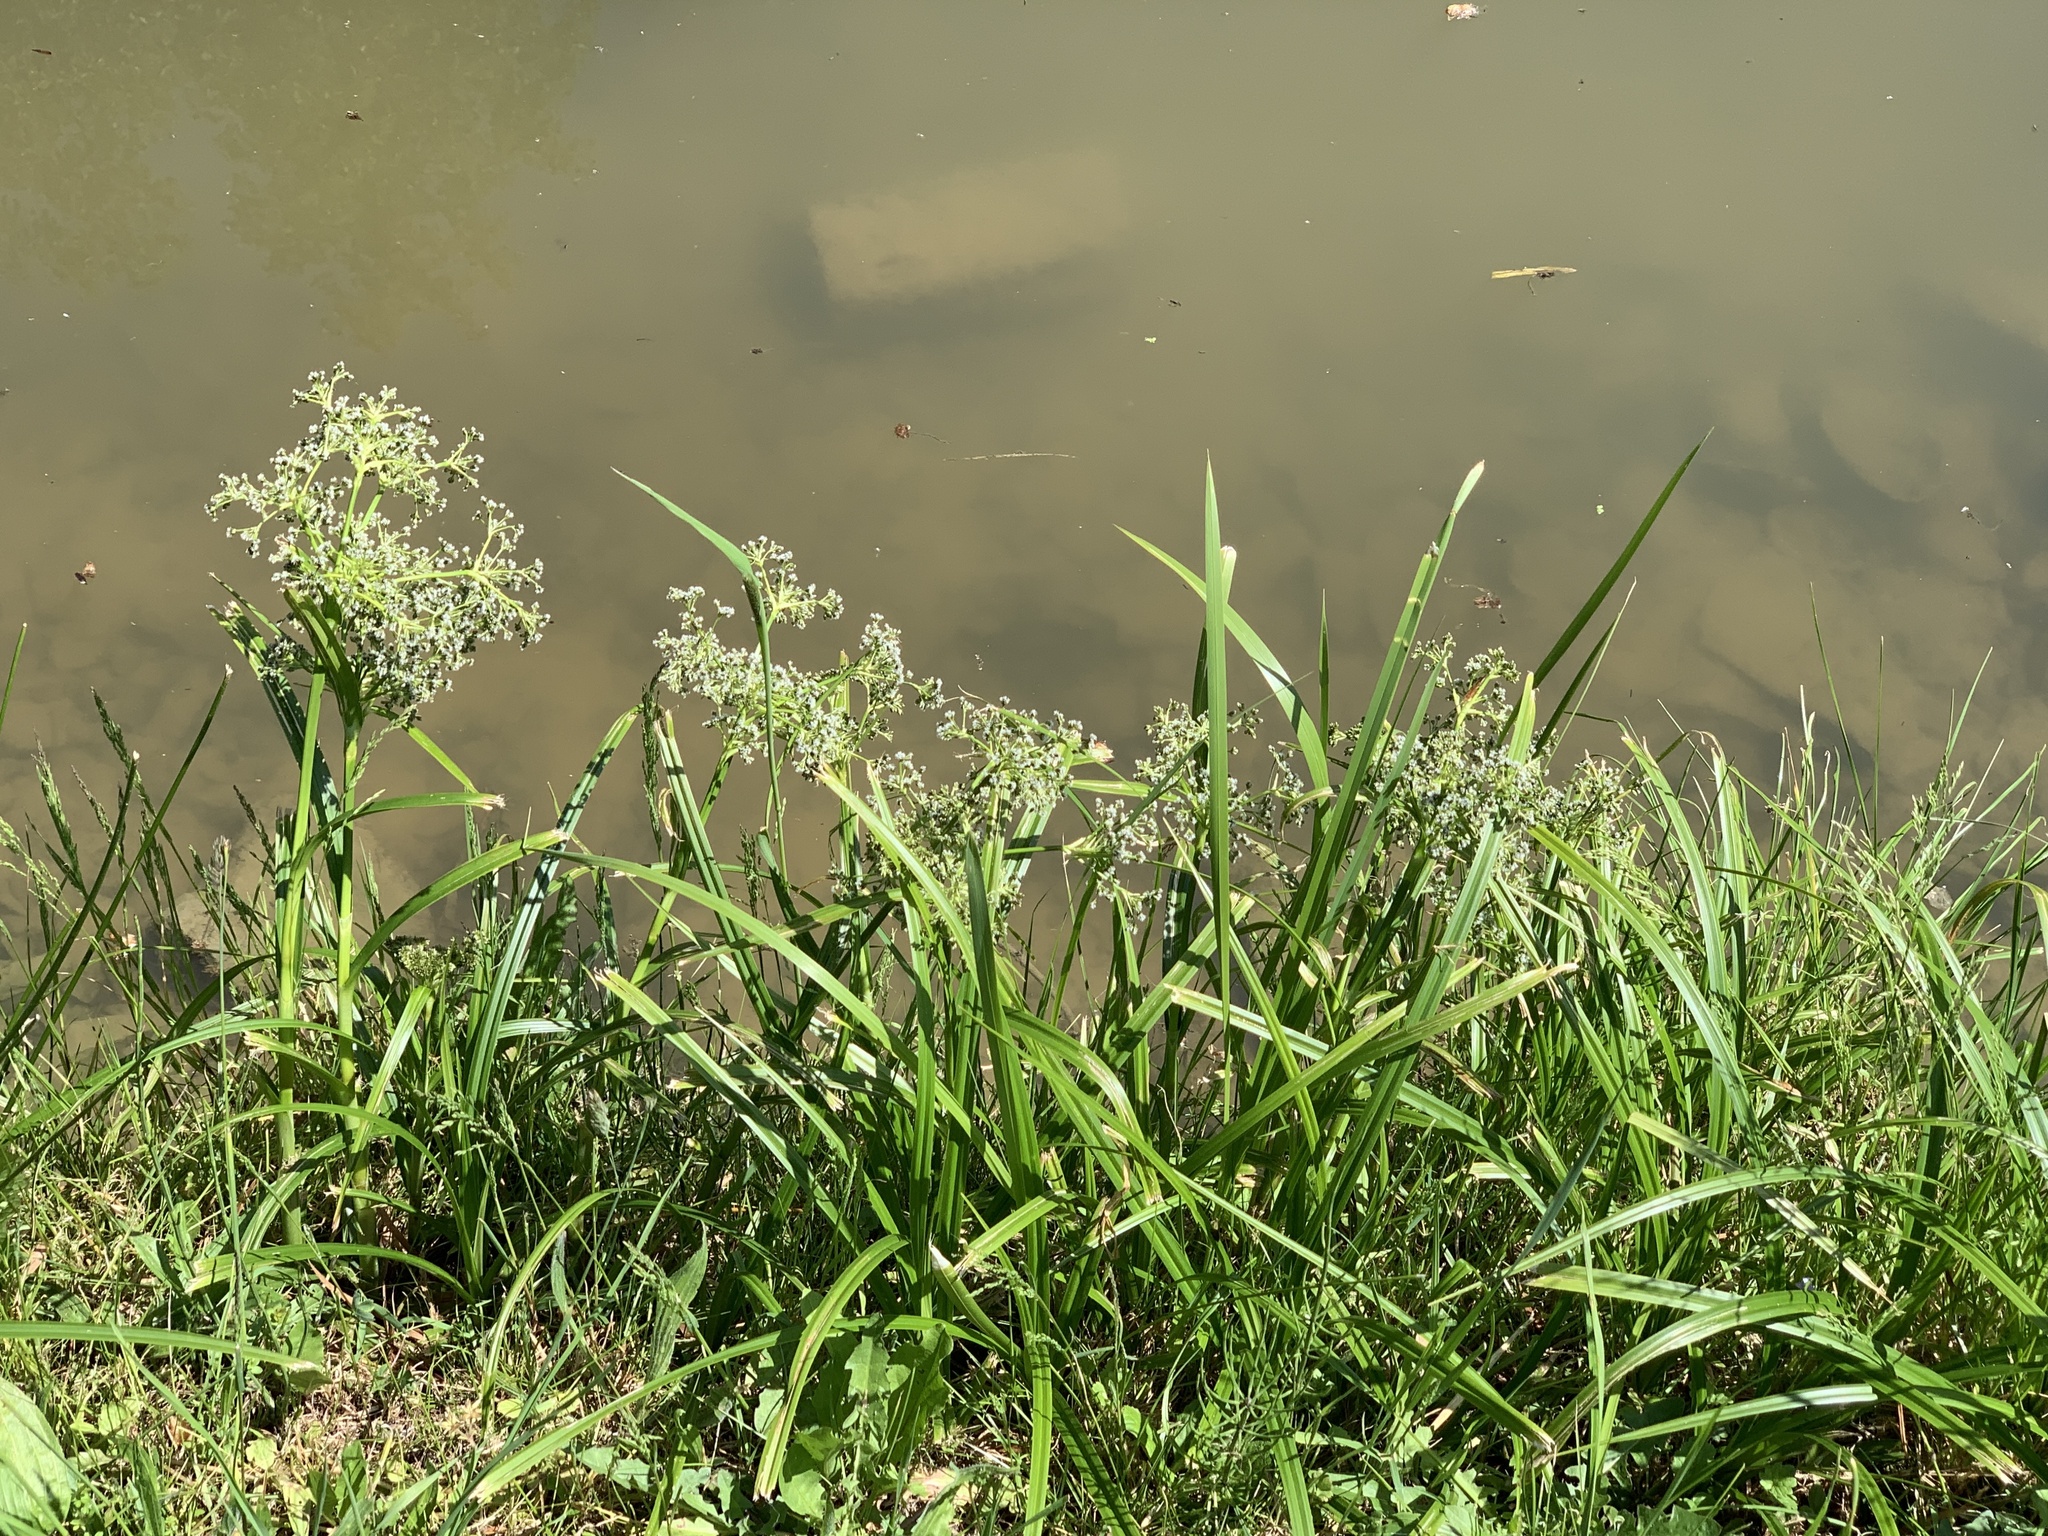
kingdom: Plantae
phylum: Tracheophyta
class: Liliopsida
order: Poales
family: Cyperaceae
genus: Scirpus
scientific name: Scirpus sylvaticus
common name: Wood club-rush
